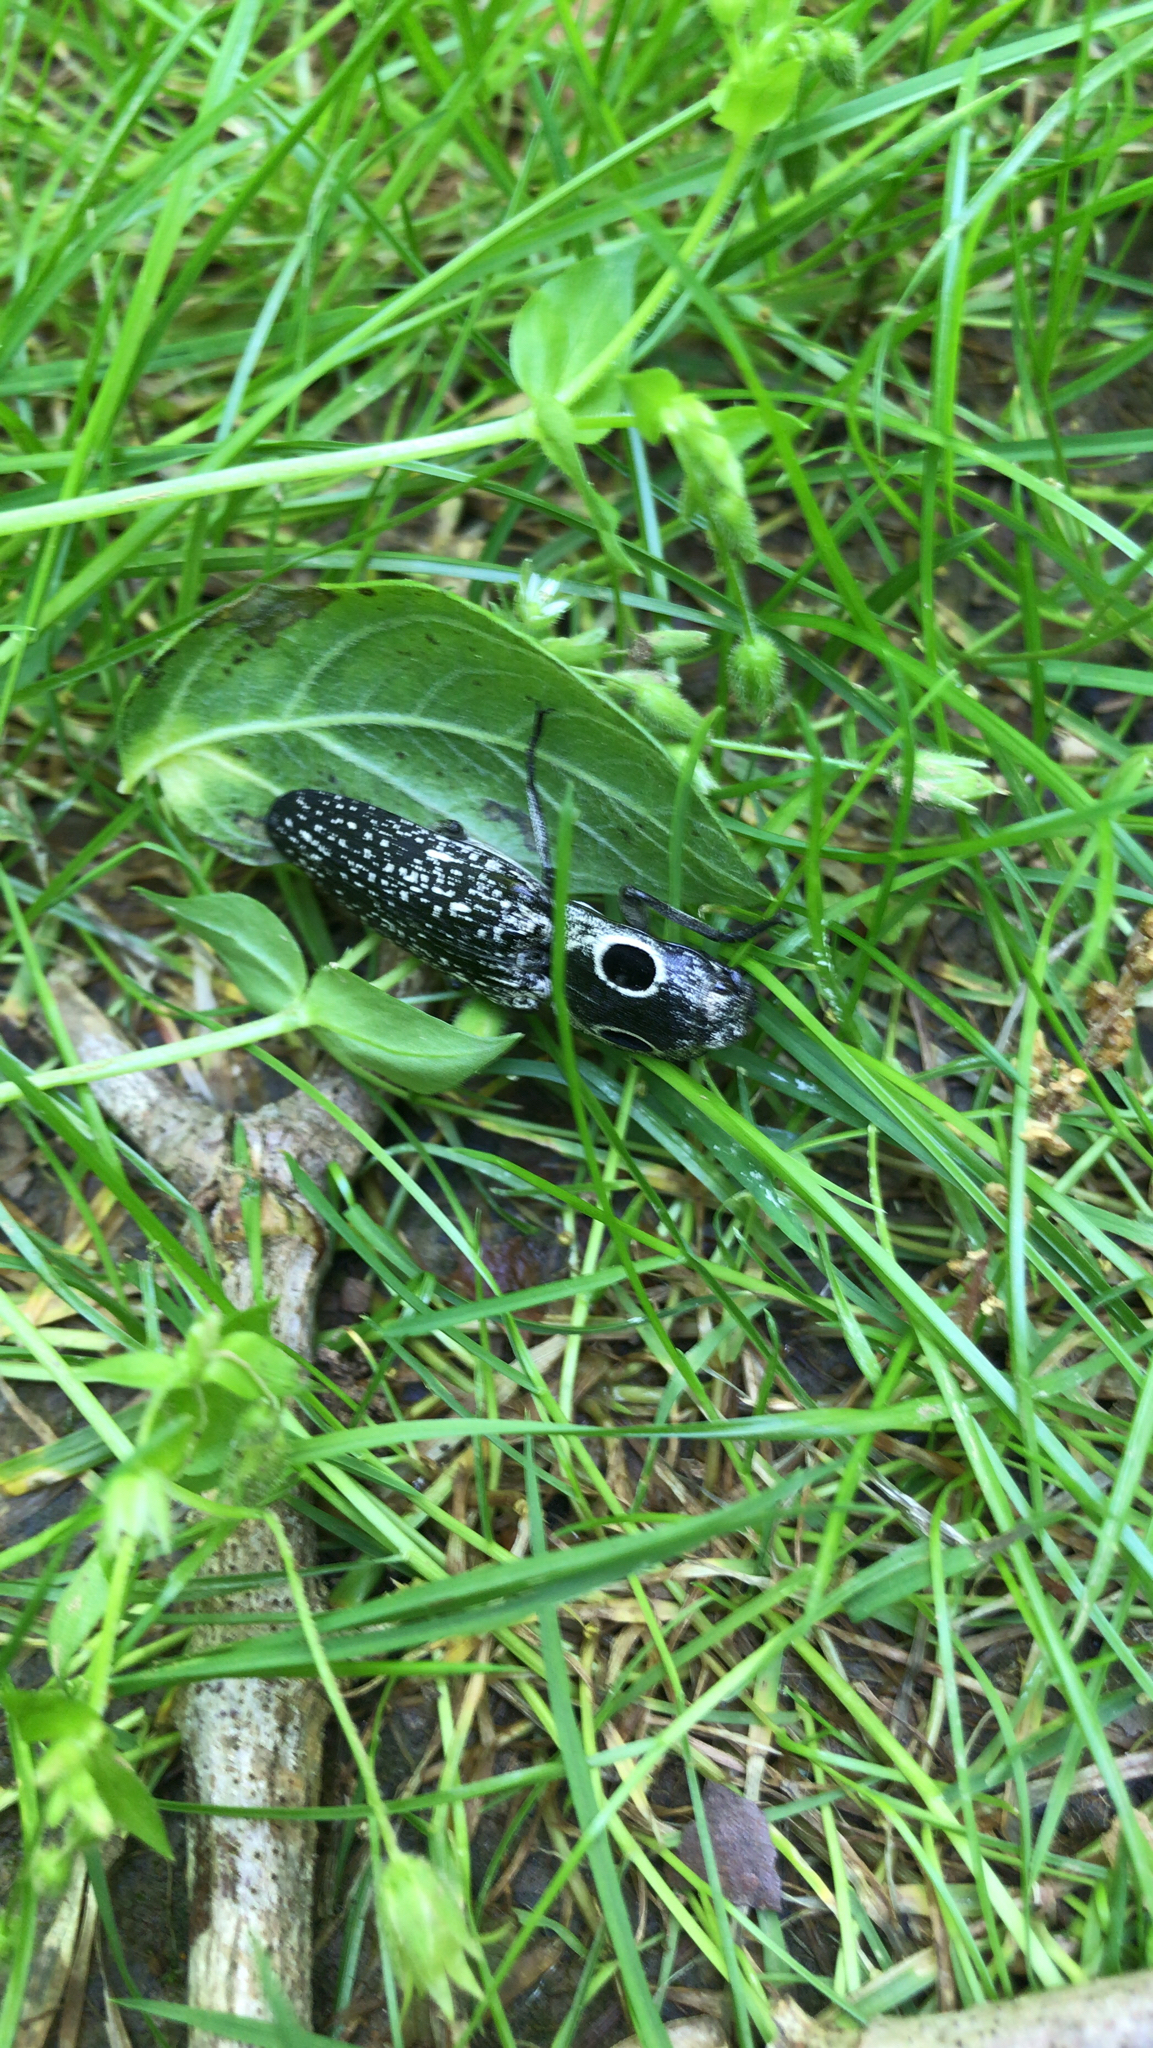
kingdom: Animalia
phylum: Arthropoda
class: Insecta
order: Coleoptera
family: Elateridae
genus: Alaus
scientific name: Alaus oculatus
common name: Eastern eyed click beetle
